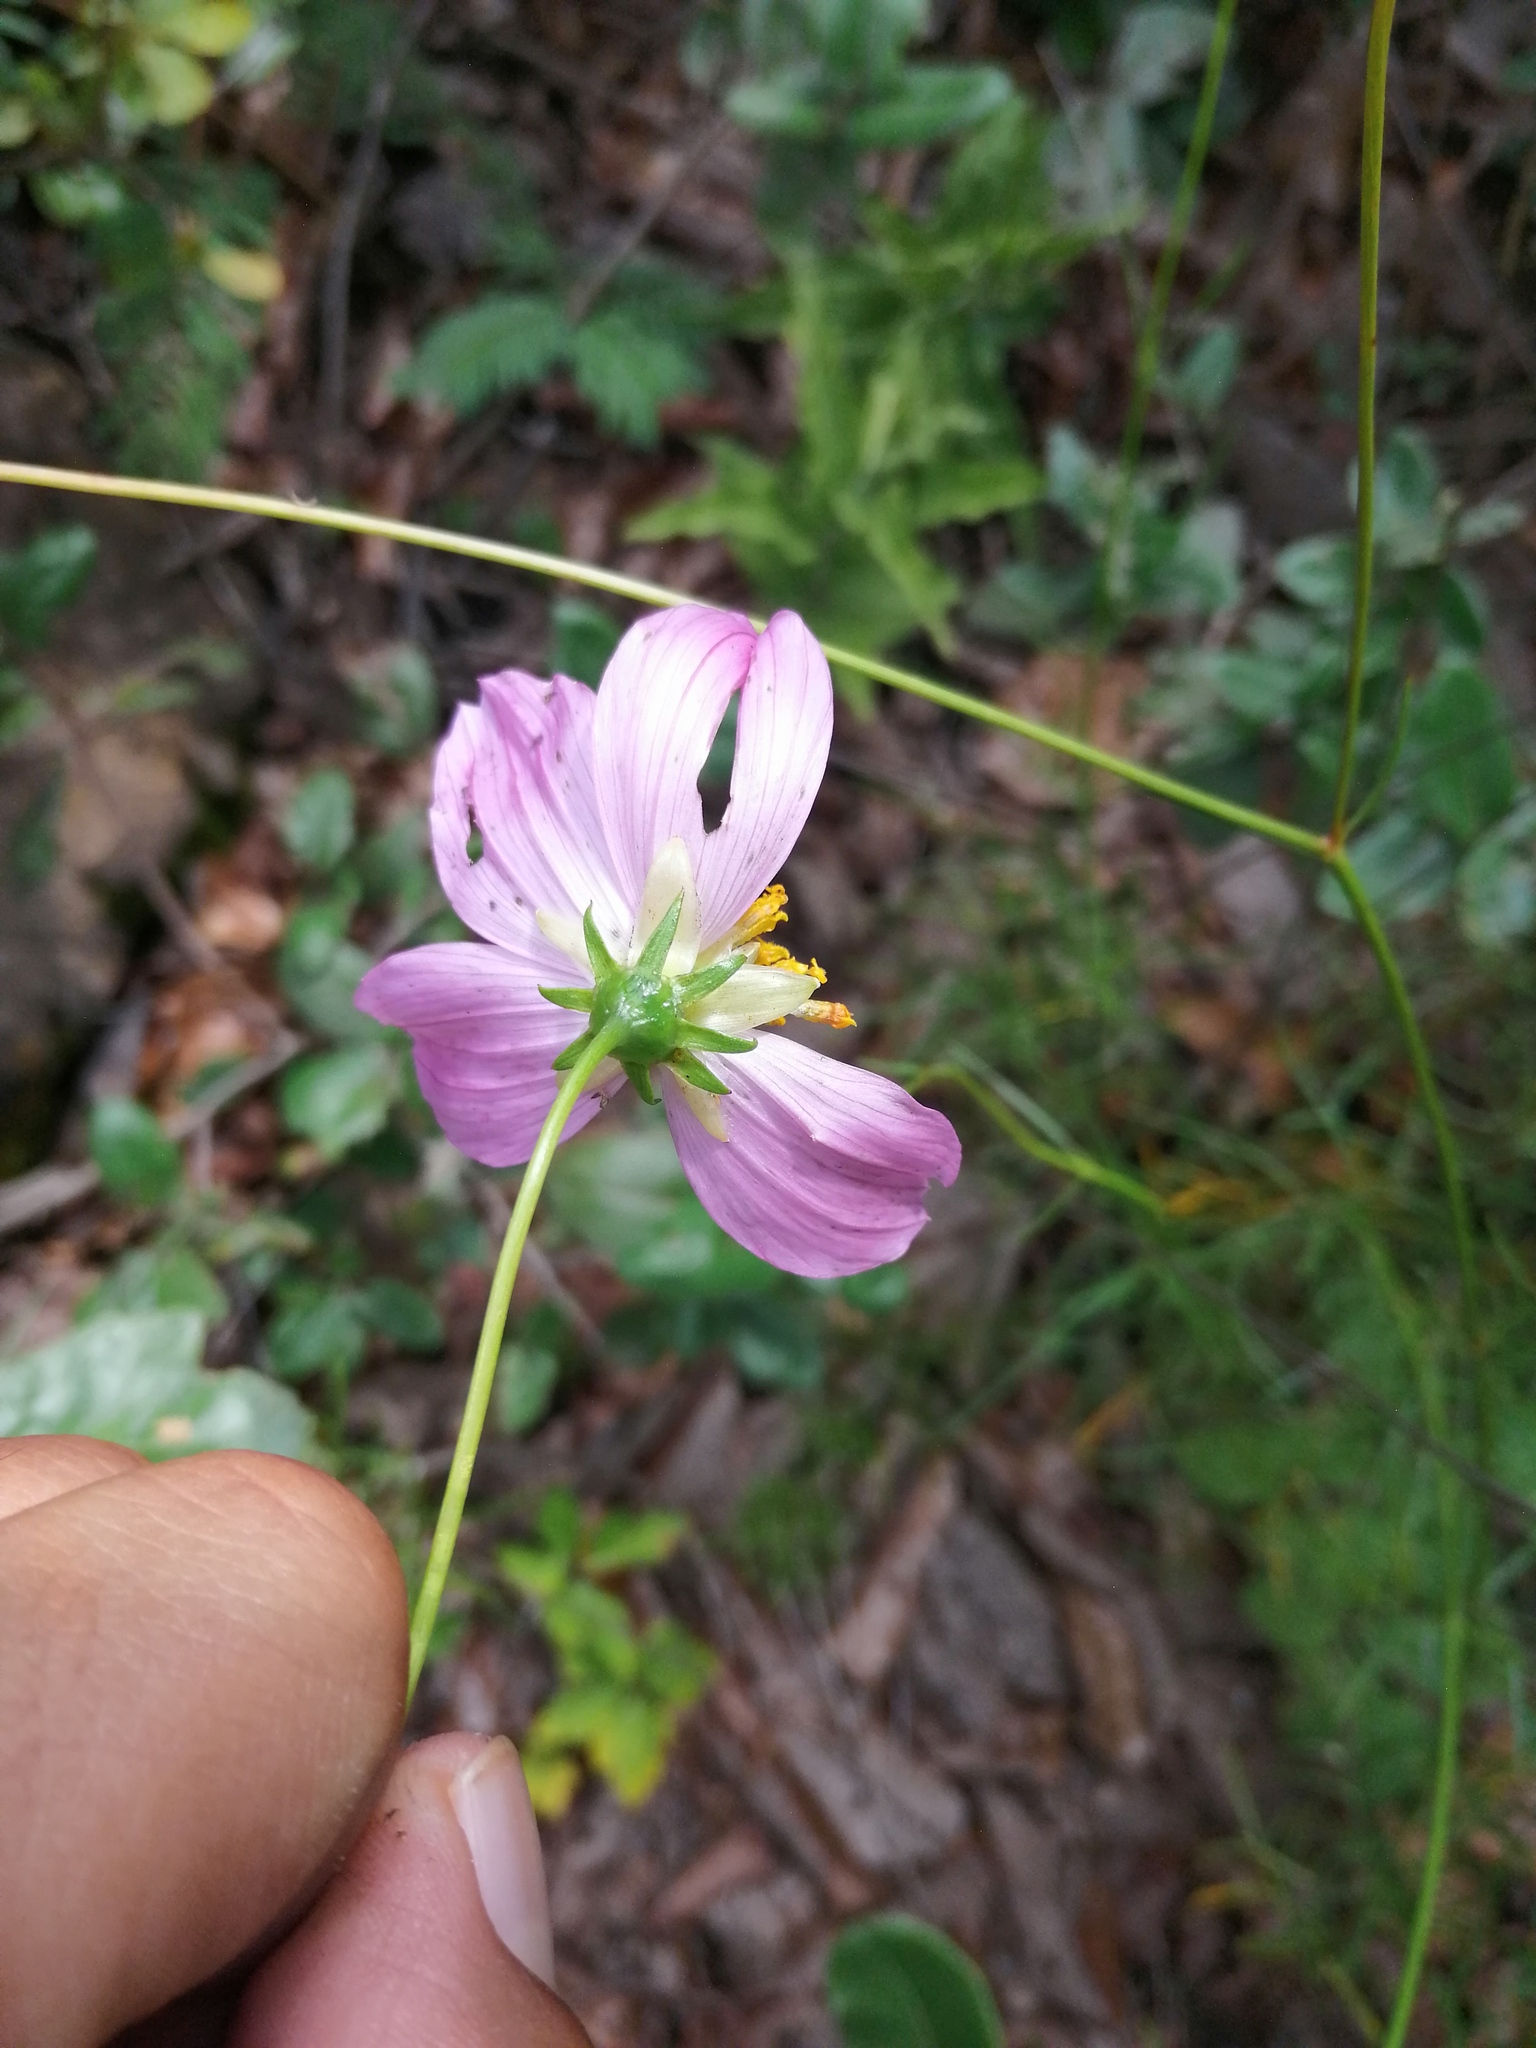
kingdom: Plantae
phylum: Tracheophyta
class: Magnoliopsida
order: Asterales
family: Asteraceae
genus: Cosmos
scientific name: Cosmos crithmifolius
